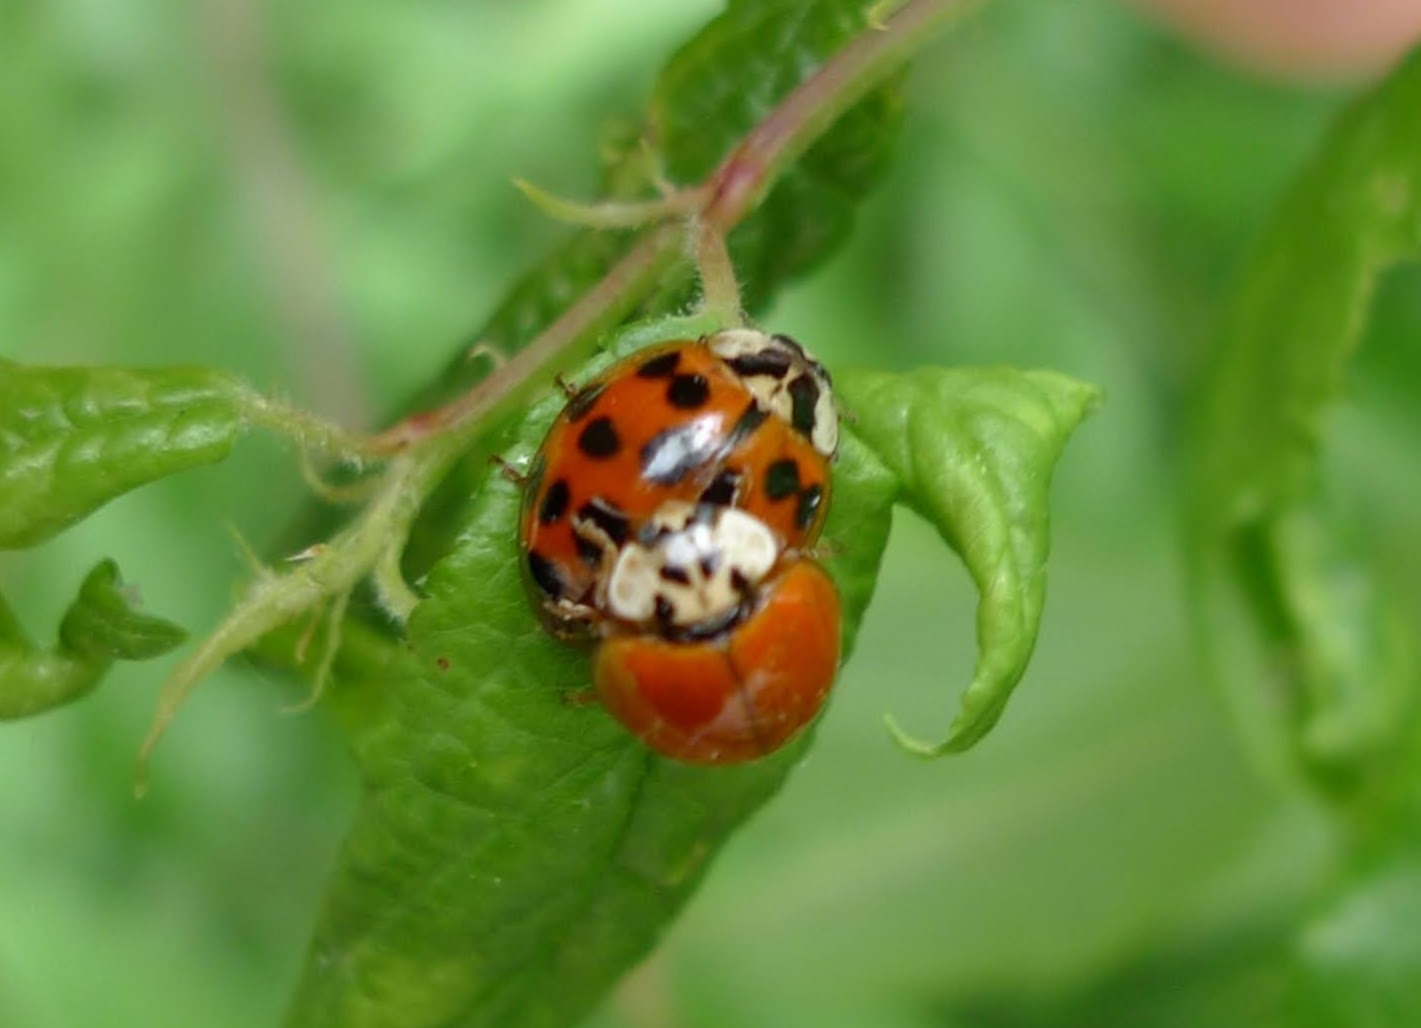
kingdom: Animalia
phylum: Arthropoda
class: Insecta
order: Coleoptera
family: Coccinellidae
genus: Harmonia
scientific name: Harmonia axyridis
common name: Harlequin ladybird
